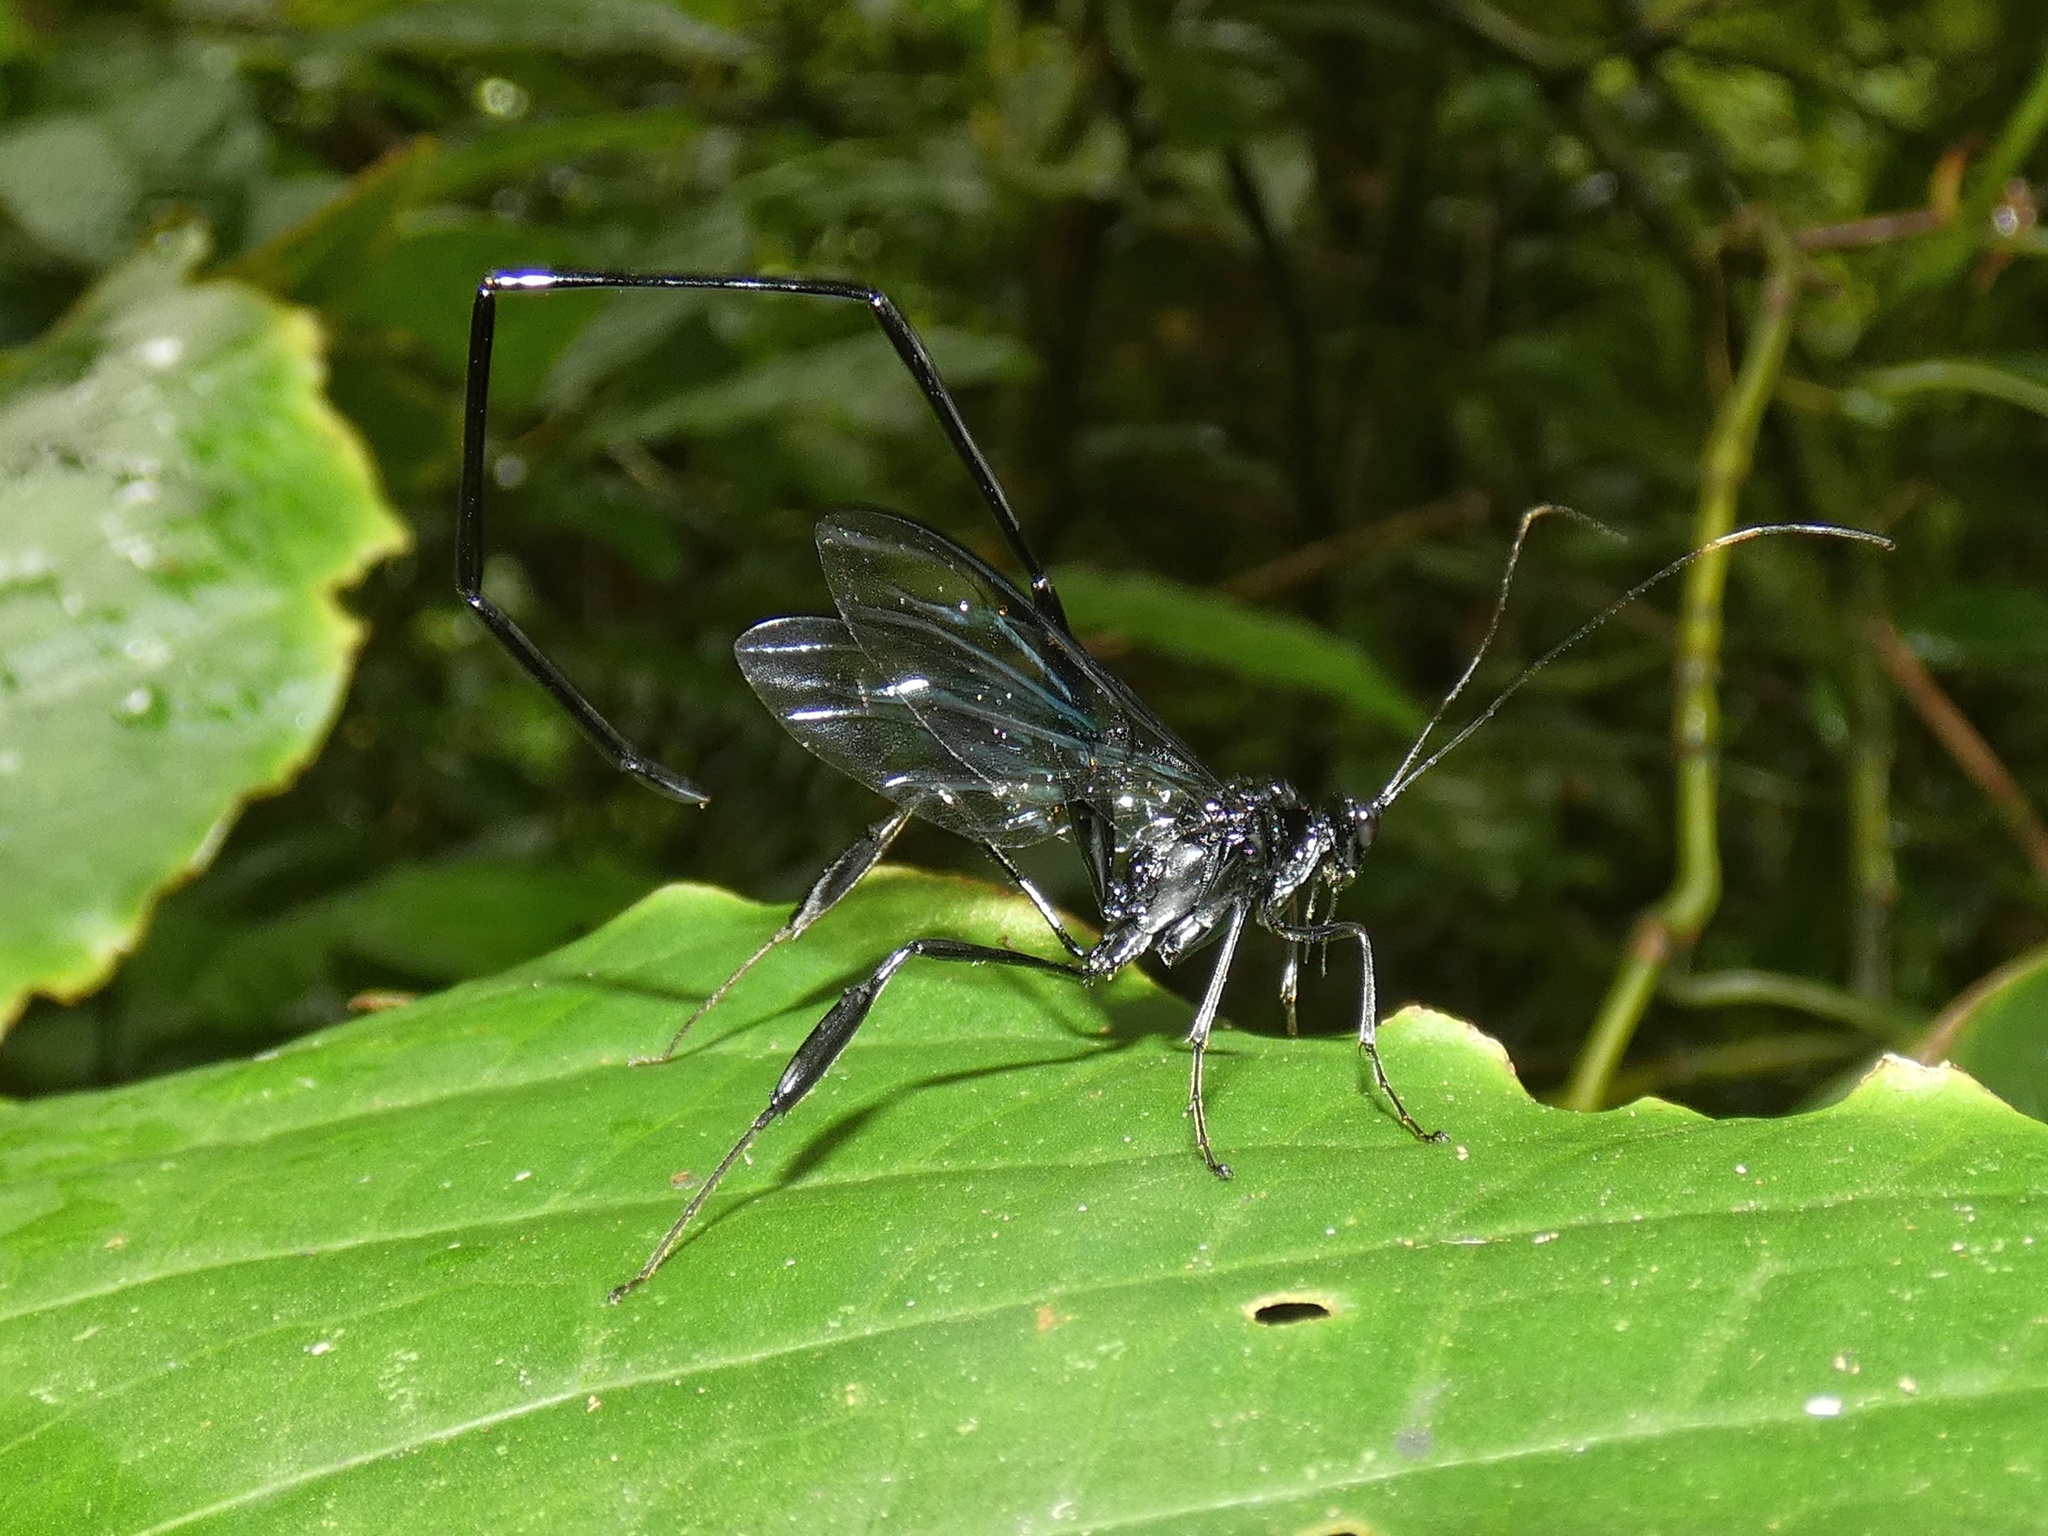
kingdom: Animalia
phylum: Arthropoda
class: Insecta
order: Hymenoptera
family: Pelecinidae
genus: Pelecinus
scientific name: Pelecinus polyturator
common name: American pelecinid wasp
